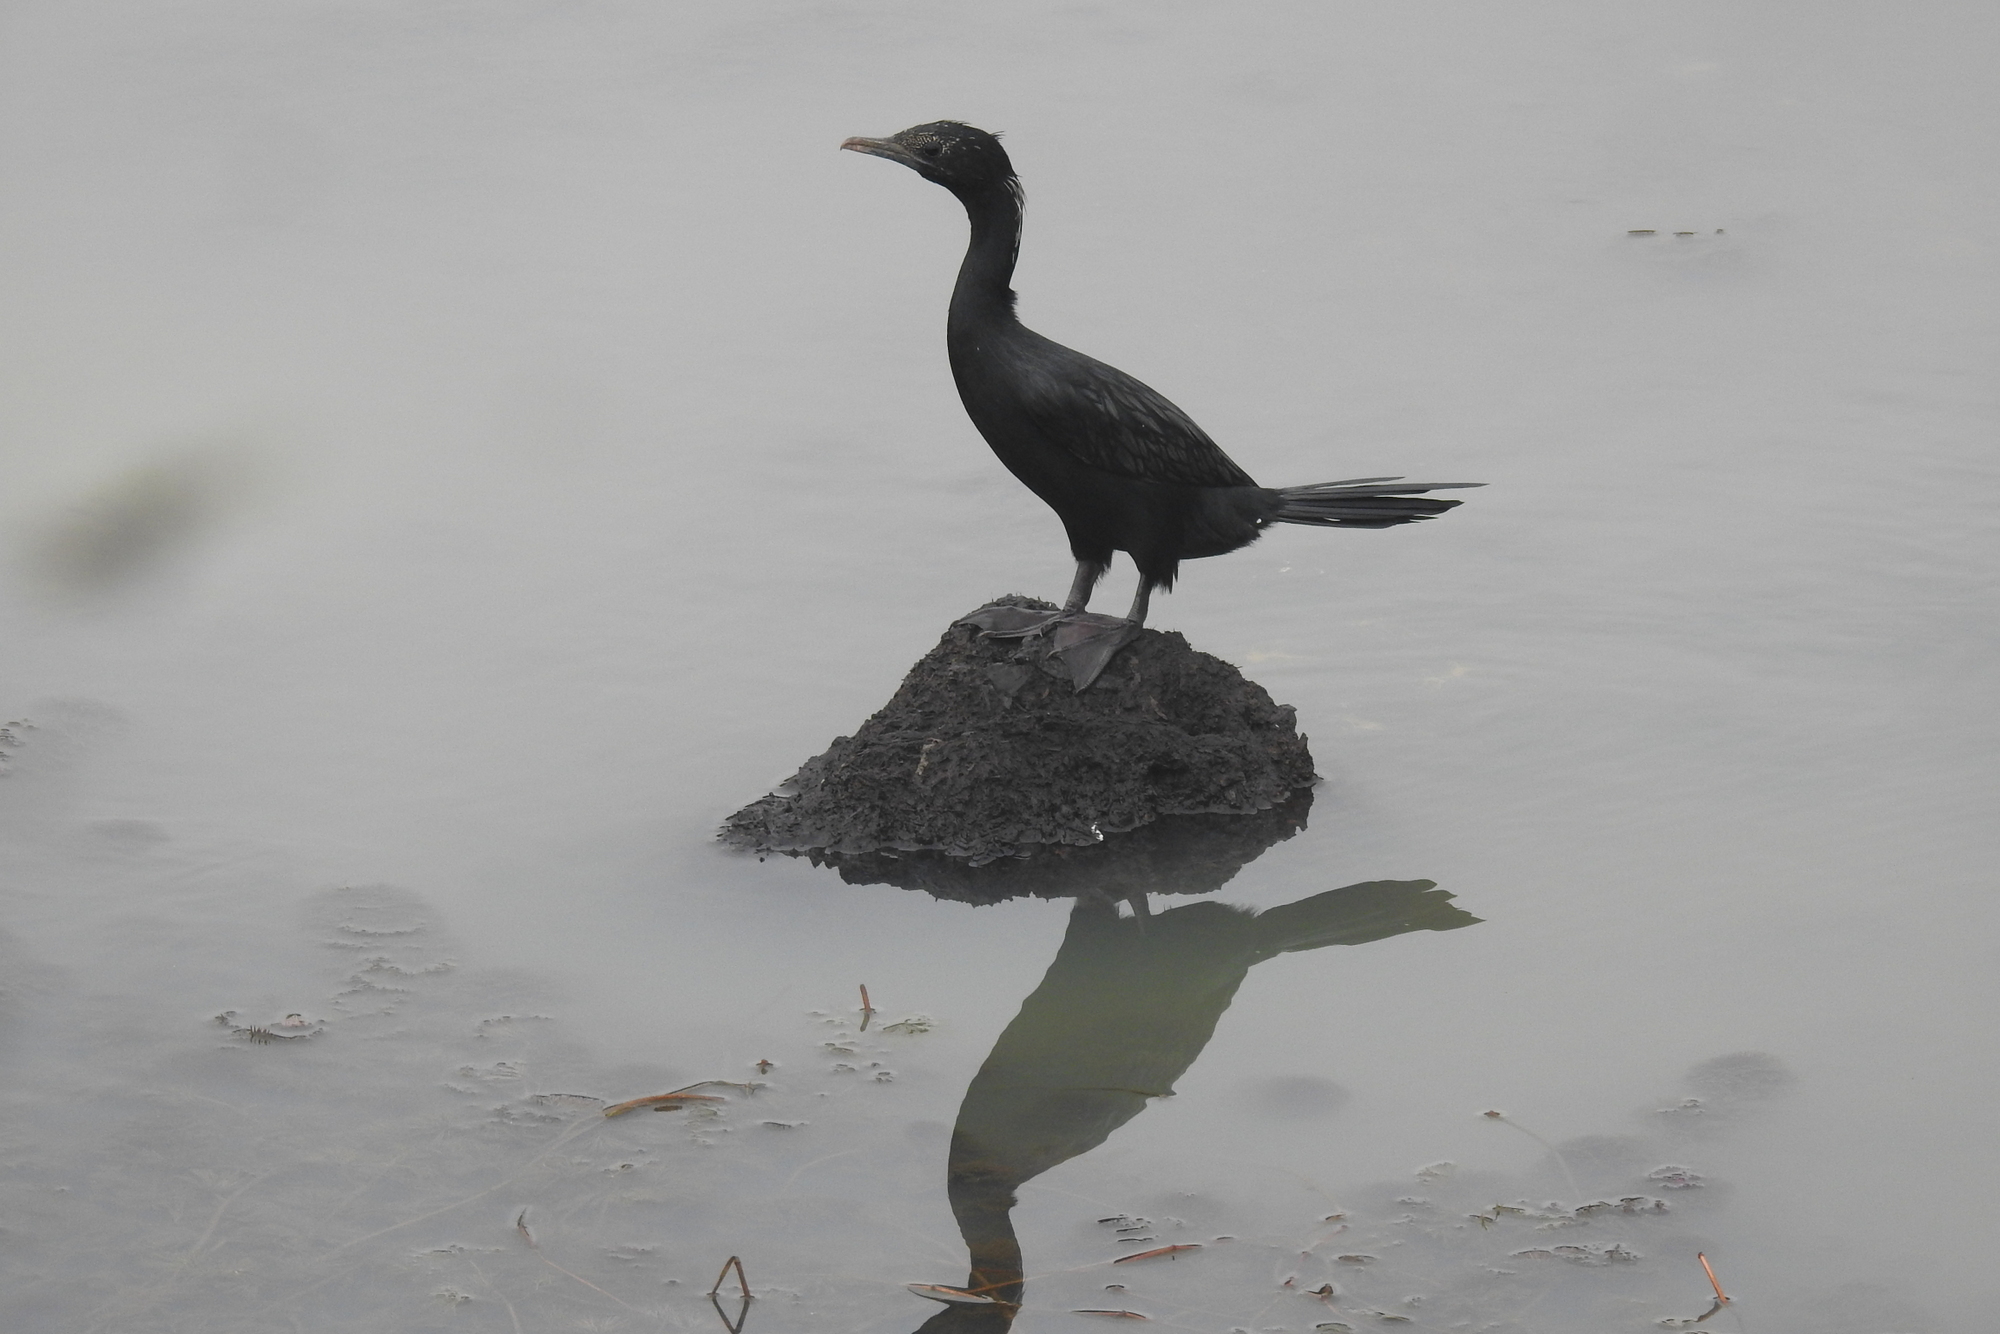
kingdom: Animalia
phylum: Chordata
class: Aves
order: Suliformes
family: Phalacrocoracidae
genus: Microcarbo
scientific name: Microcarbo niger
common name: Little cormorant
